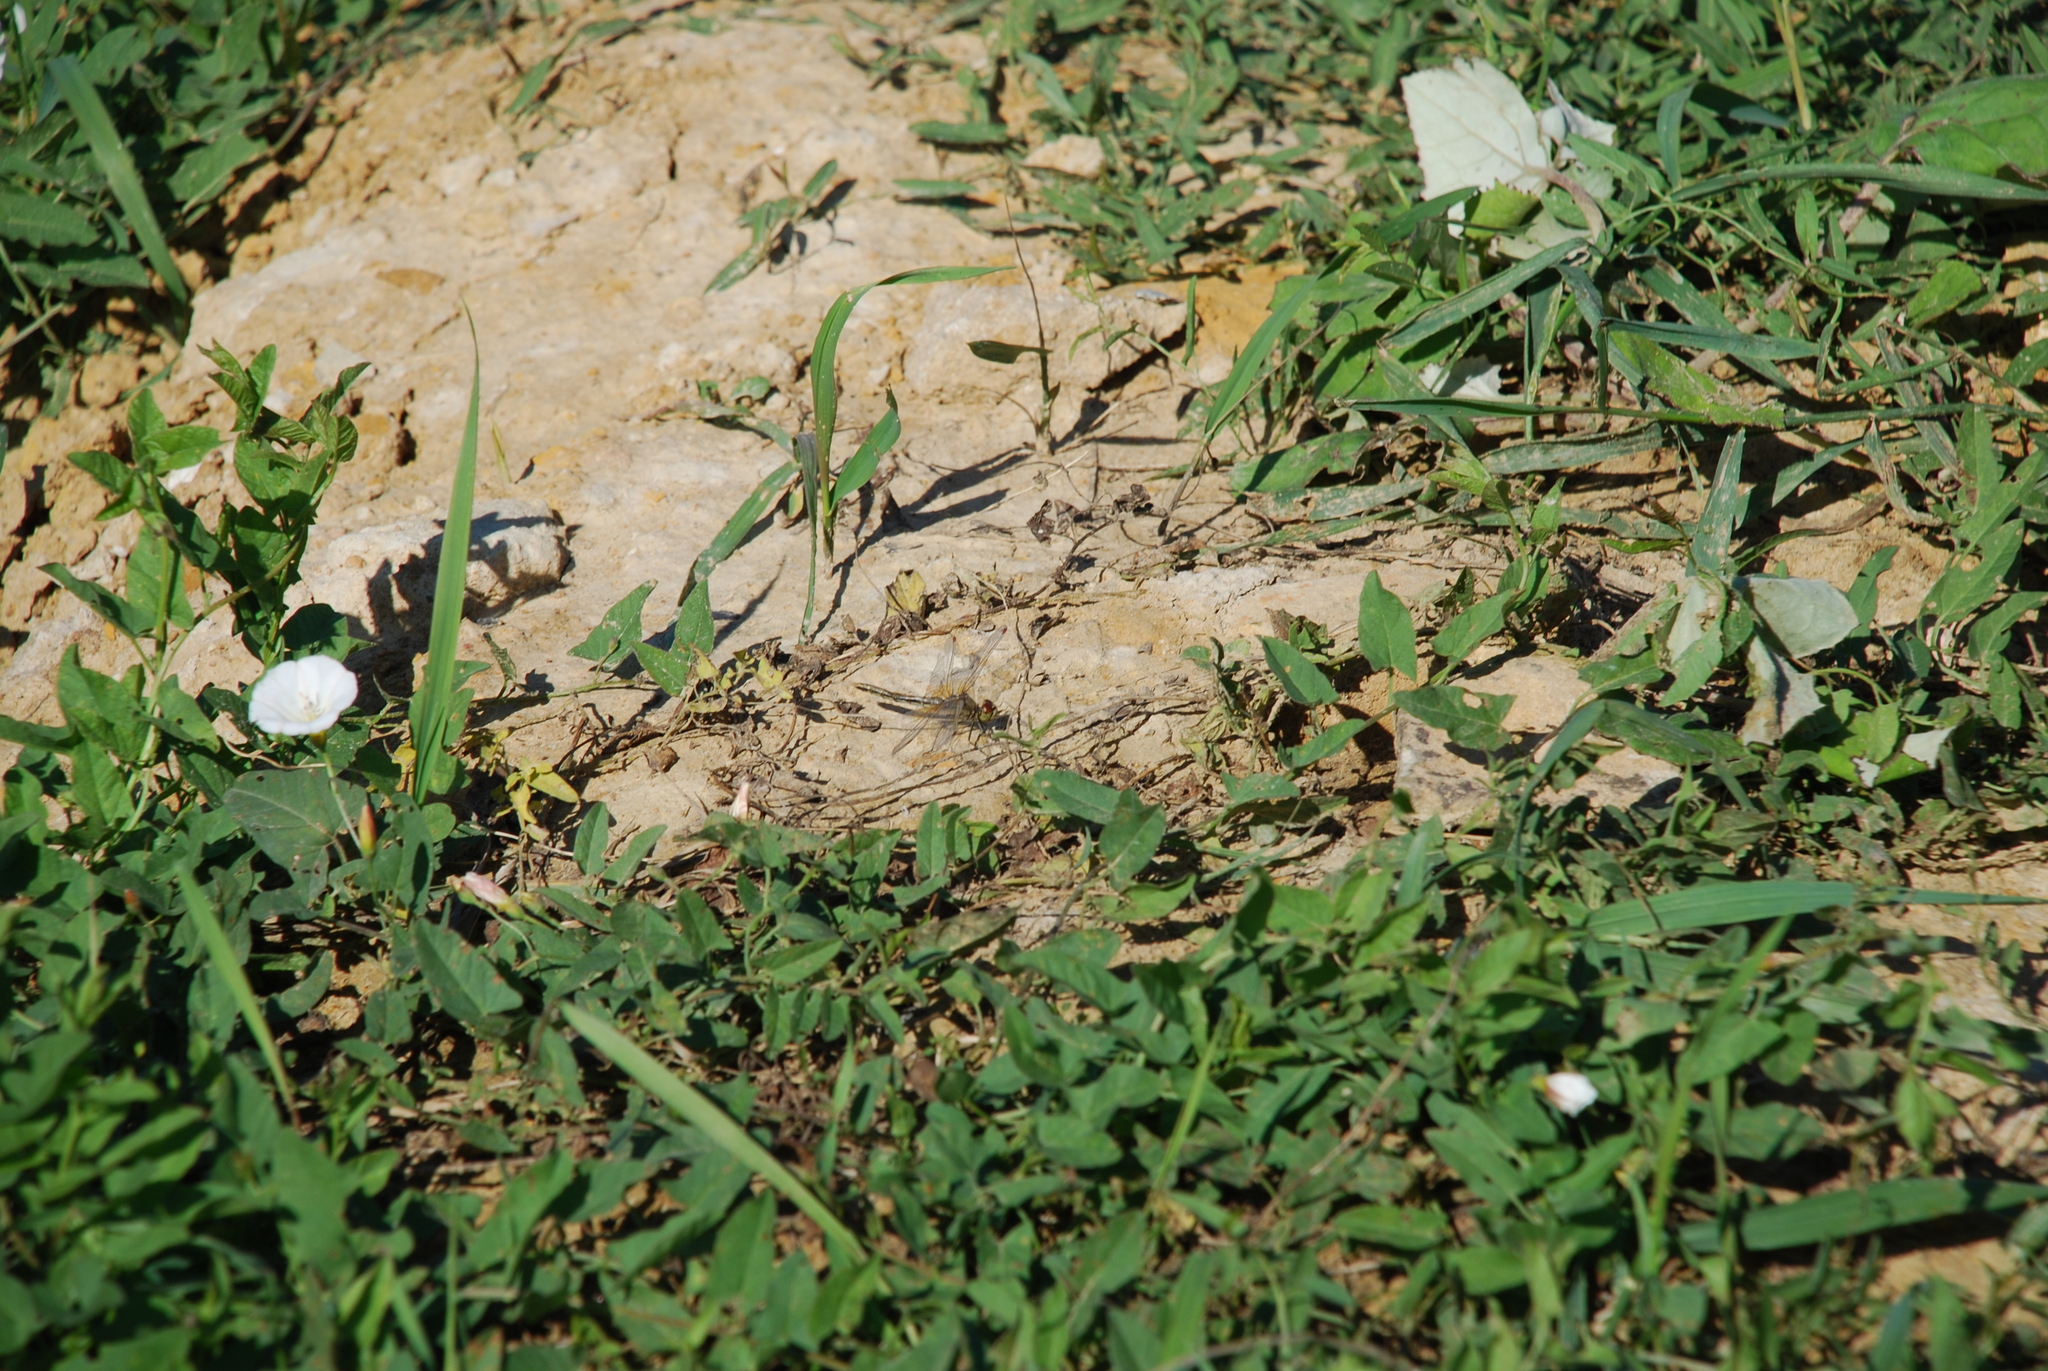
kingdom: Plantae
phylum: Tracheophyta
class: Magnoliopsida
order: Solanales
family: Convolvulaceae
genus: Convolvulus
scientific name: Convolvulus arvensis
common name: Field bindweed
